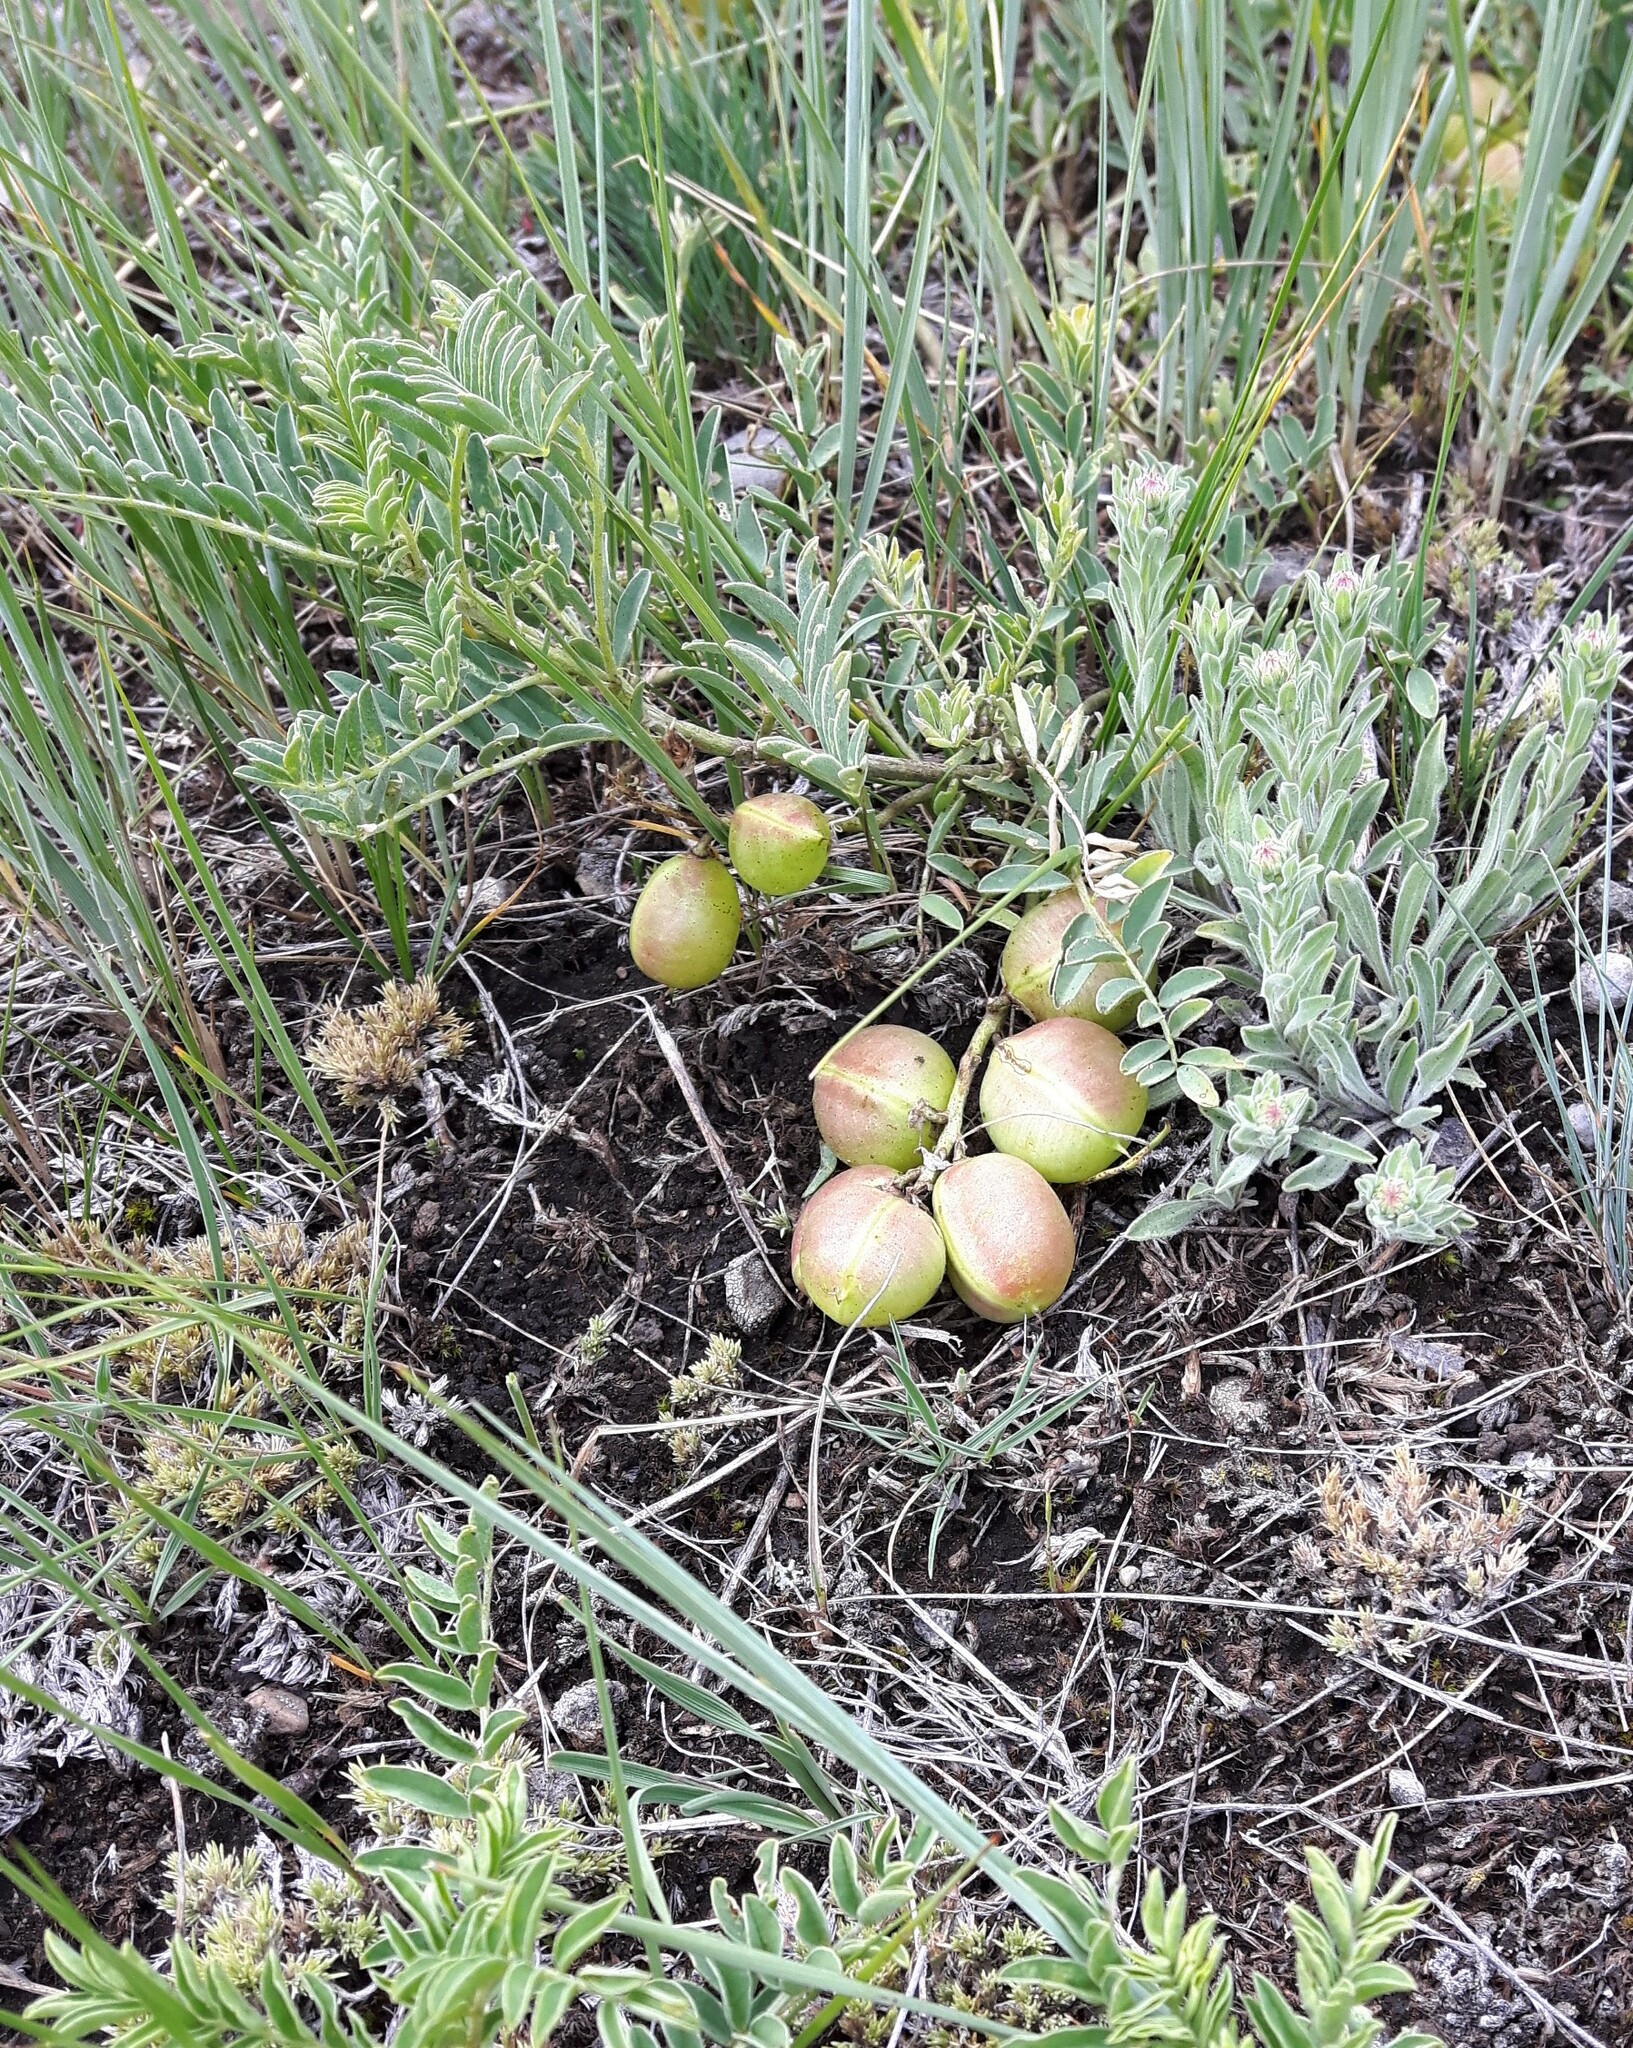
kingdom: Plantae
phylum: Tracheophyta
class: Magnoliopsida
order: Fabales
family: Fabaceae
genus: Astragalus
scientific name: Astragalus crassicarpus
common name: Ground-plum milk-vetch
